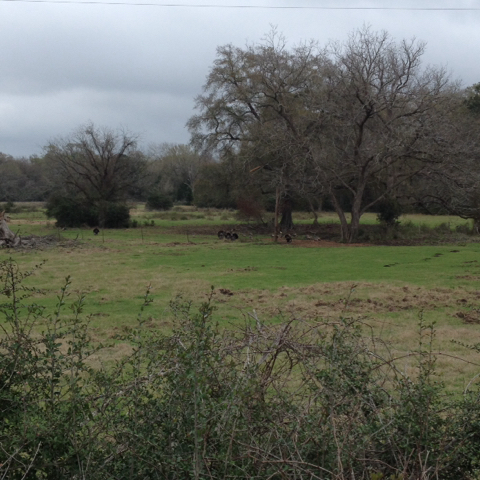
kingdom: Animalia
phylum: Chordata
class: Aves
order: Galliformes
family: Phasianidae
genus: Meleagris
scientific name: Meleagris gallopavo
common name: Wild turkey
